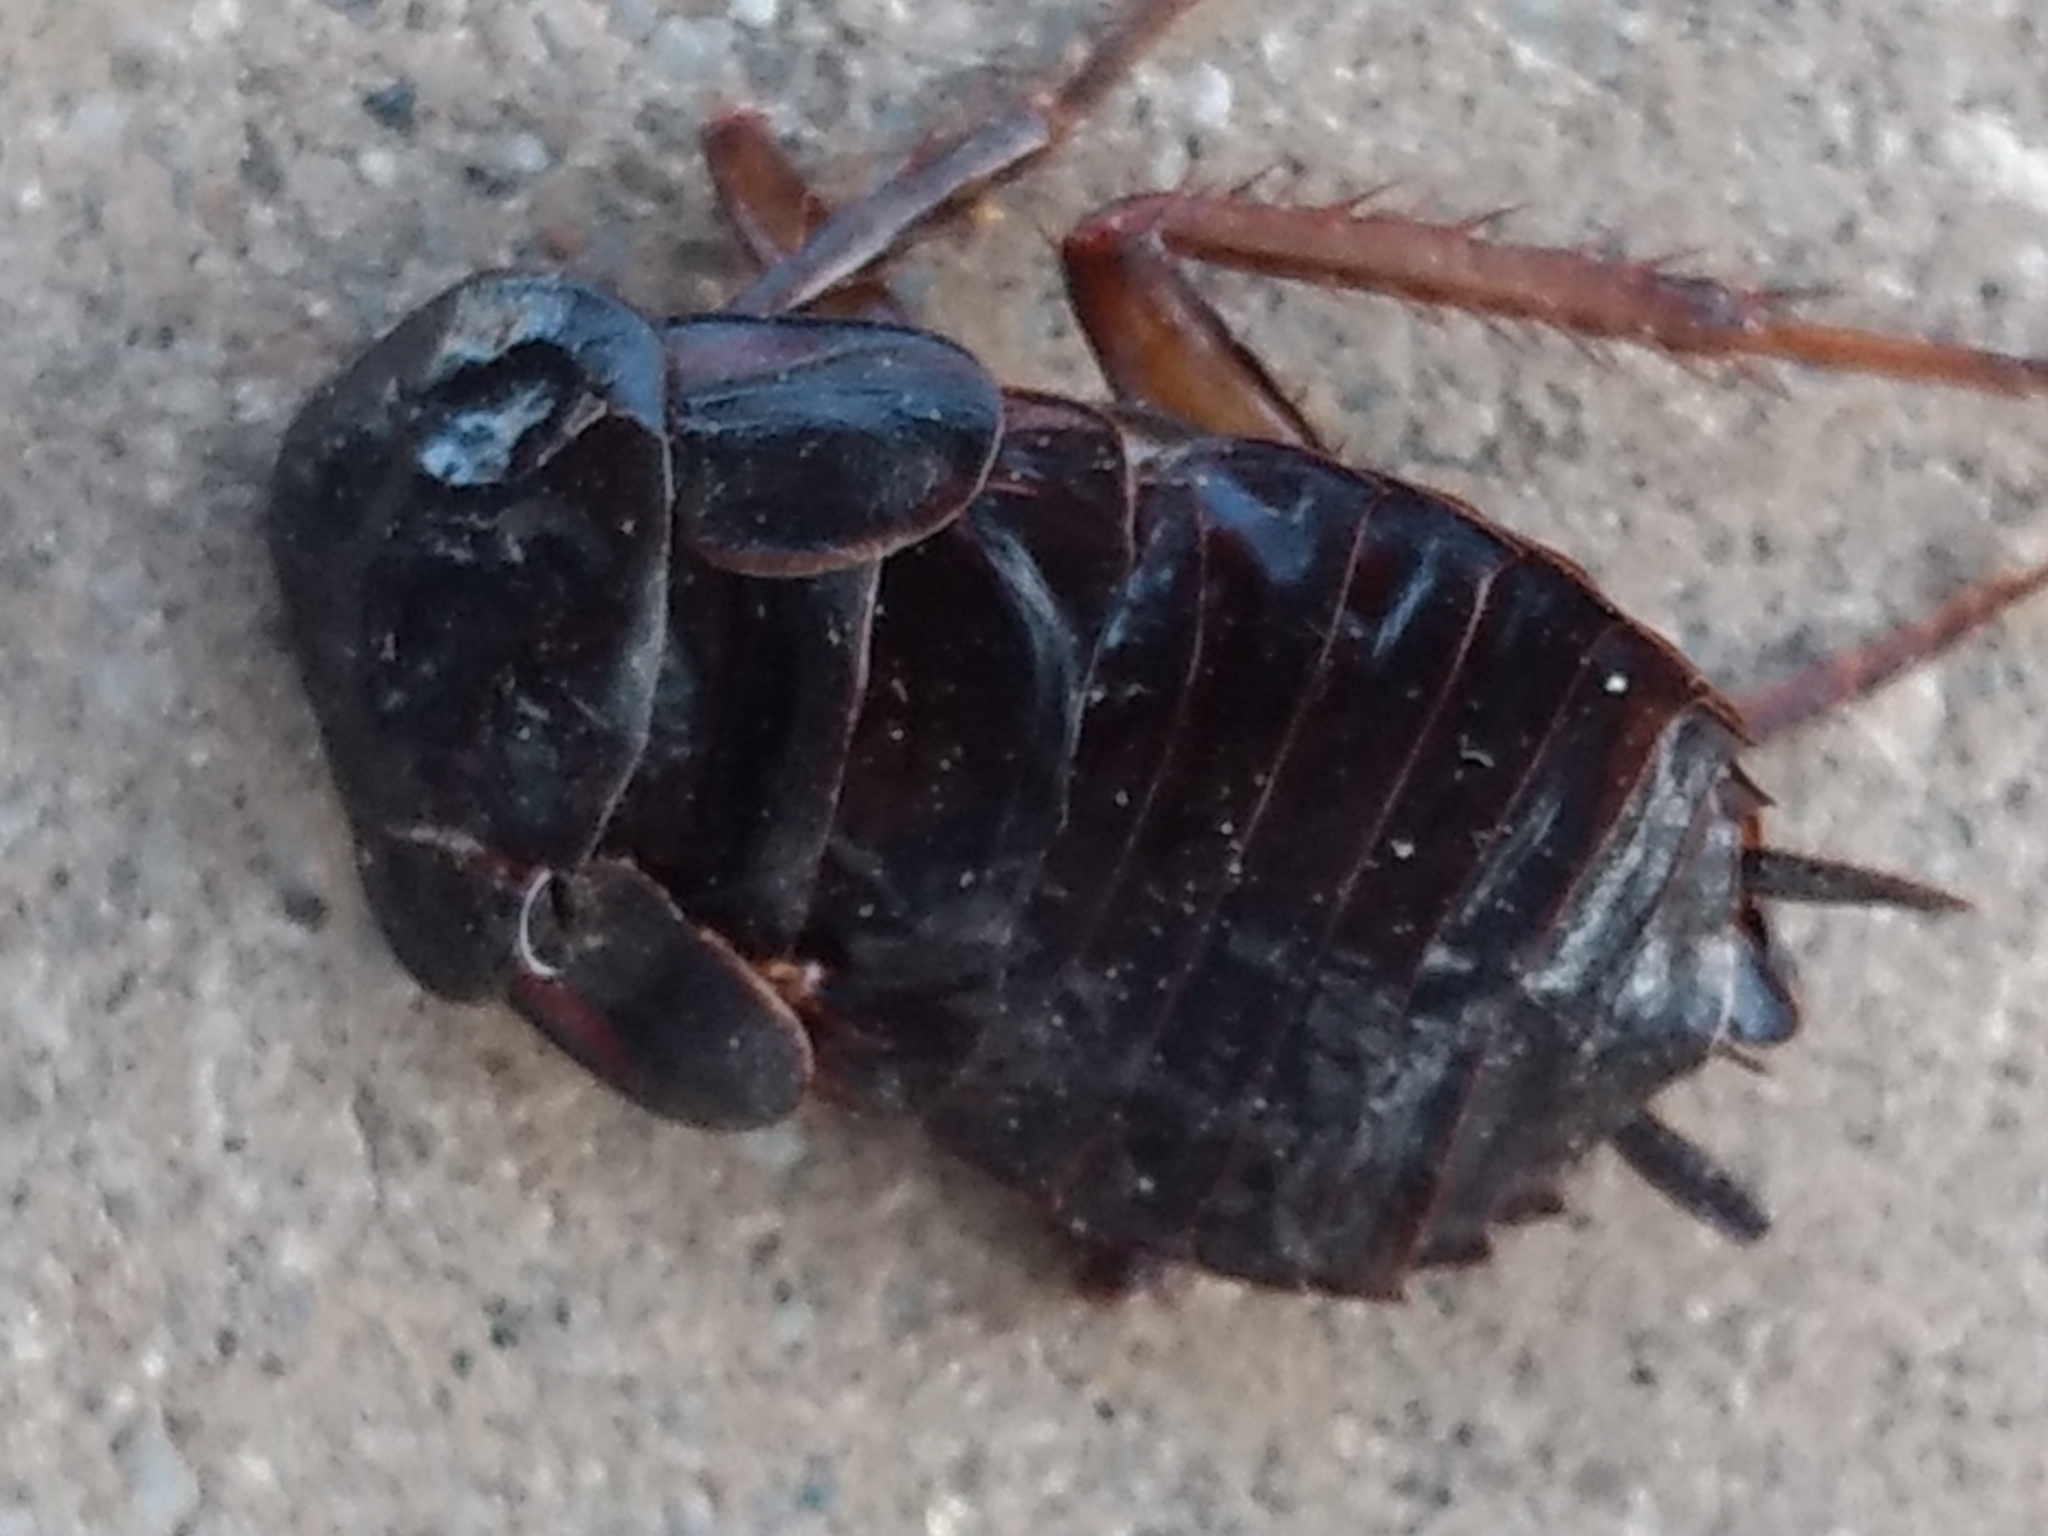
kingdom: Animalia
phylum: Arthropoda
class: Insecta
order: Blattodea
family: Blattidae
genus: Blatta
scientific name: Blatta orientalis
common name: Oriental cockroach
